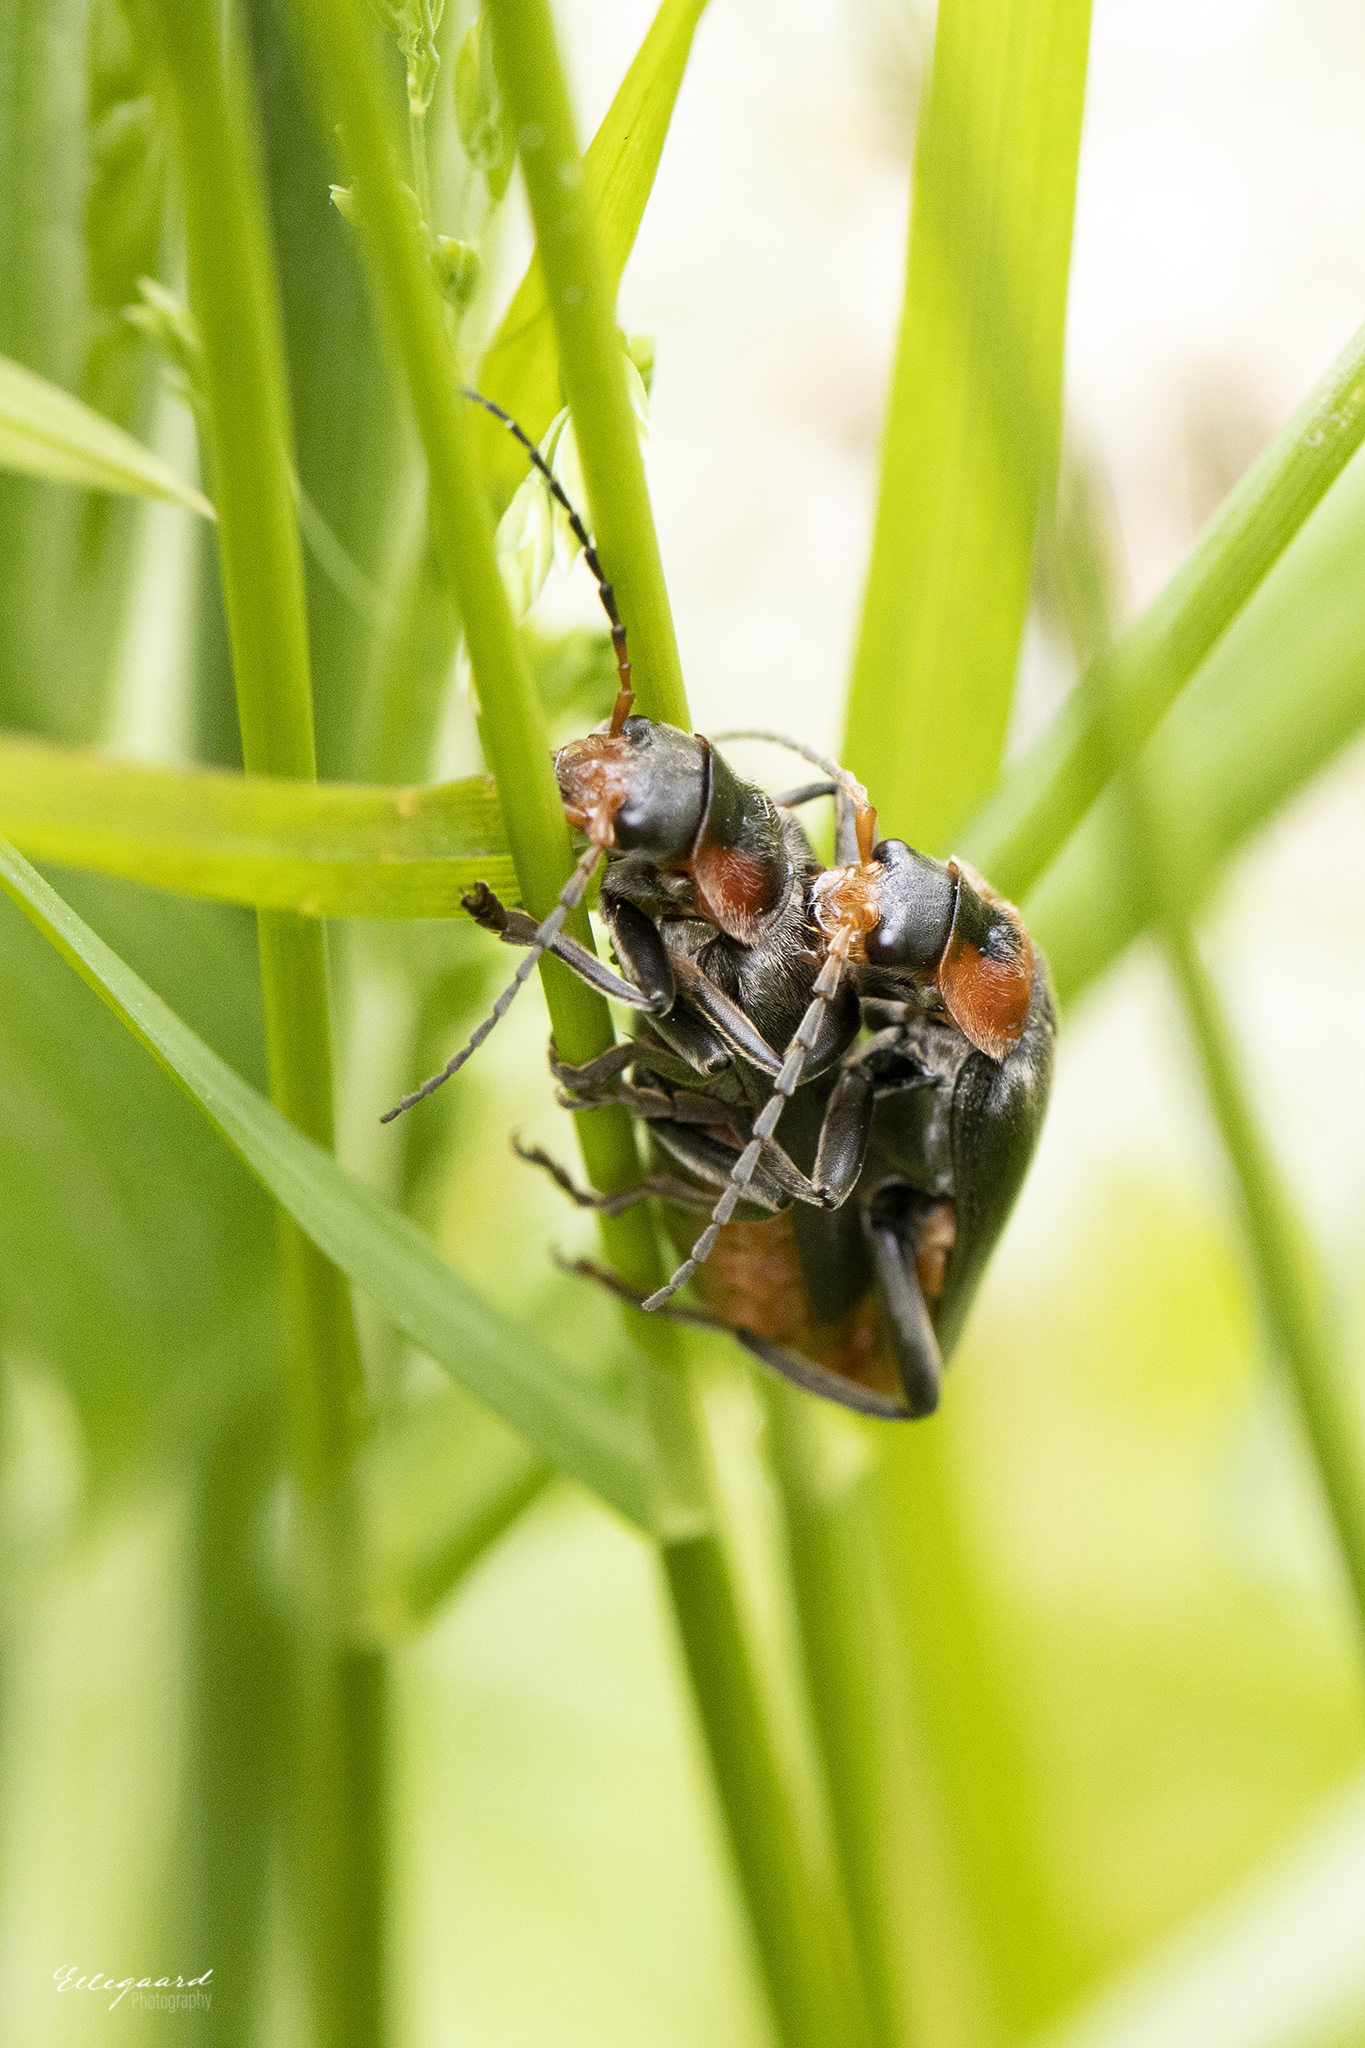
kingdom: Animalia
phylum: Arthropoda
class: Insecta
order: Coleoptera
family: Cantharidae
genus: Cantharis
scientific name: Cantharis fusca
